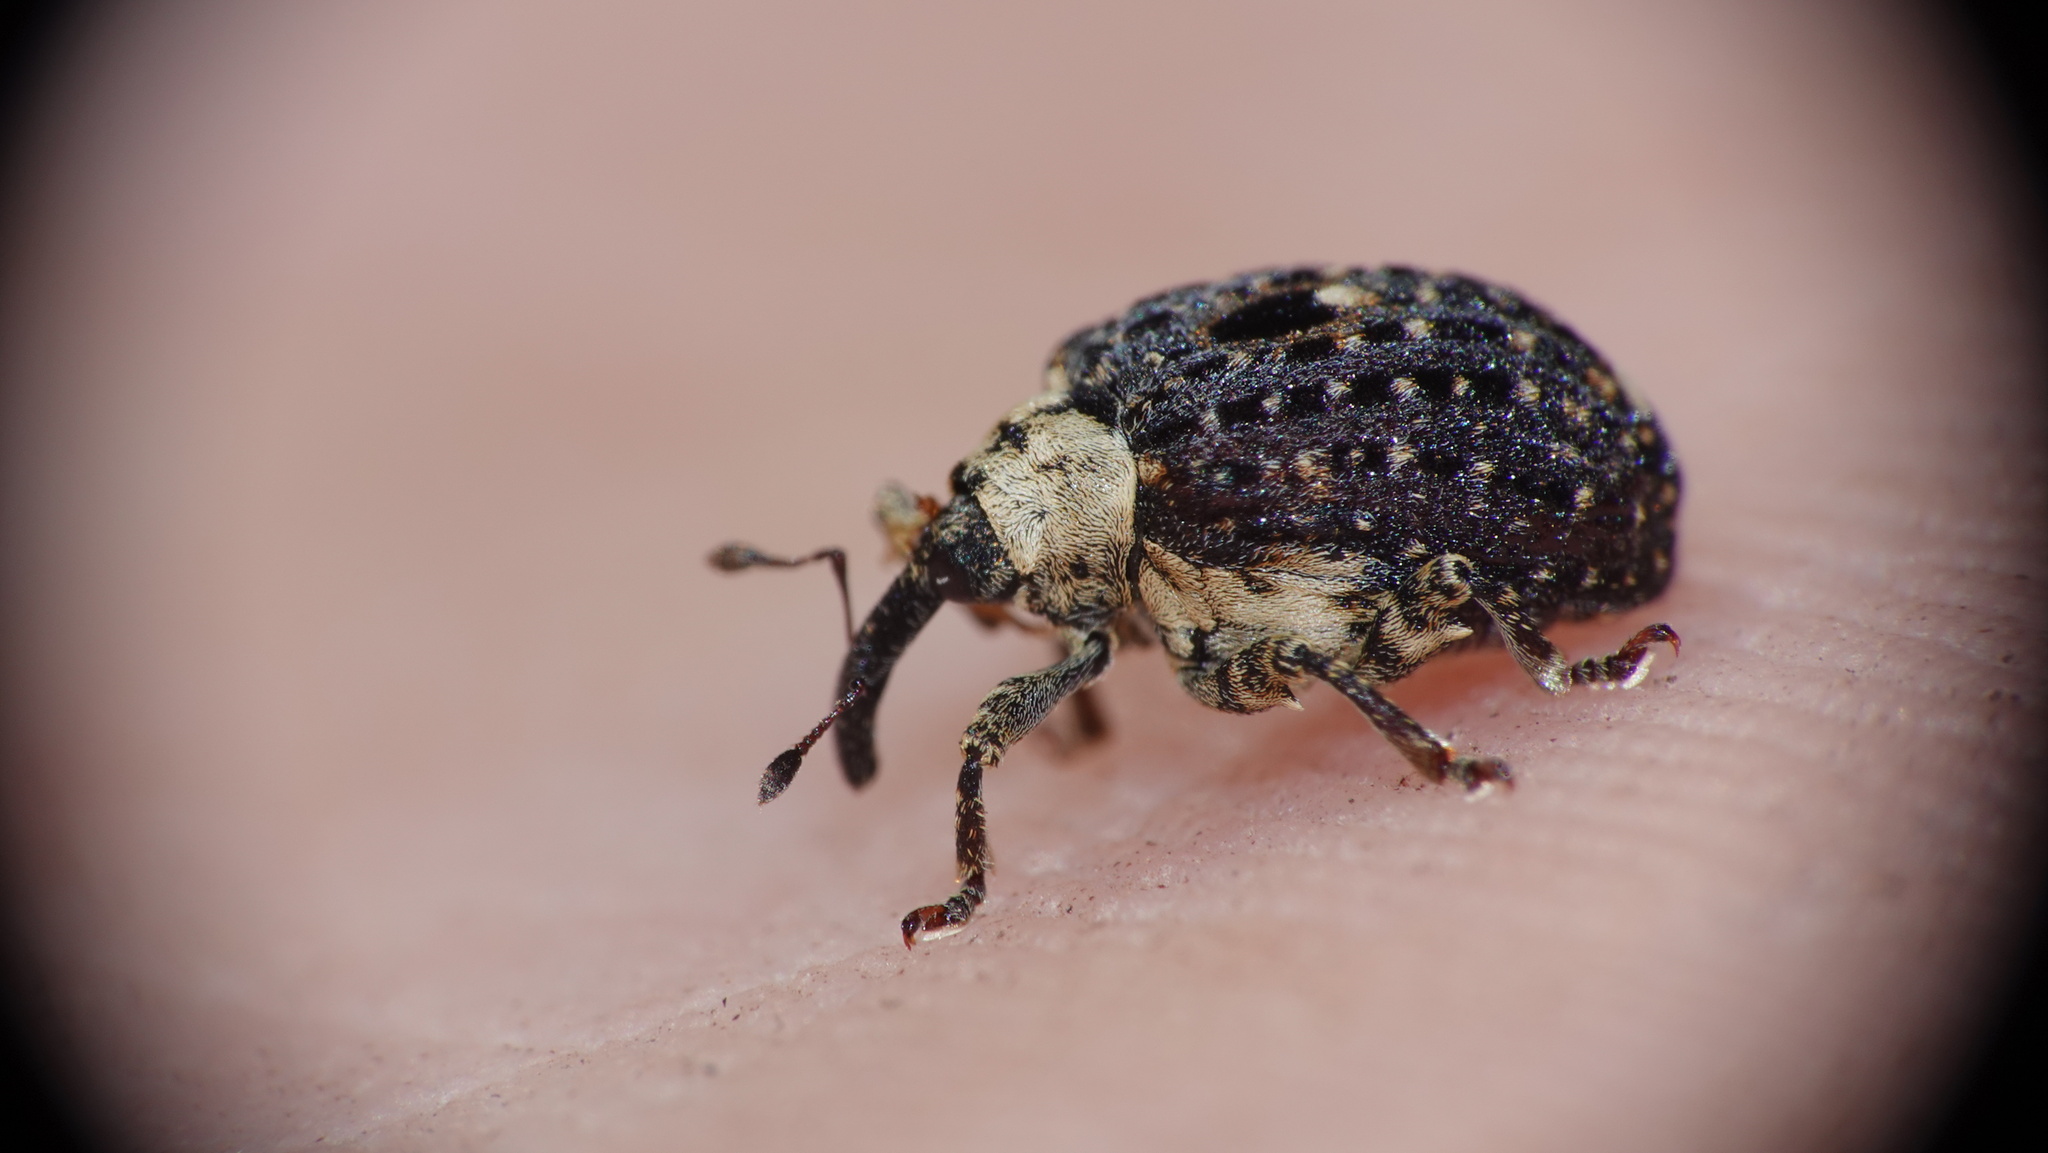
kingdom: Animalia
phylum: Arthropoda
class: Insecta
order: Coleoptera
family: Curculionidae
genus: Cionus
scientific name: Cionus scrophulariae
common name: Common figwort weevil
